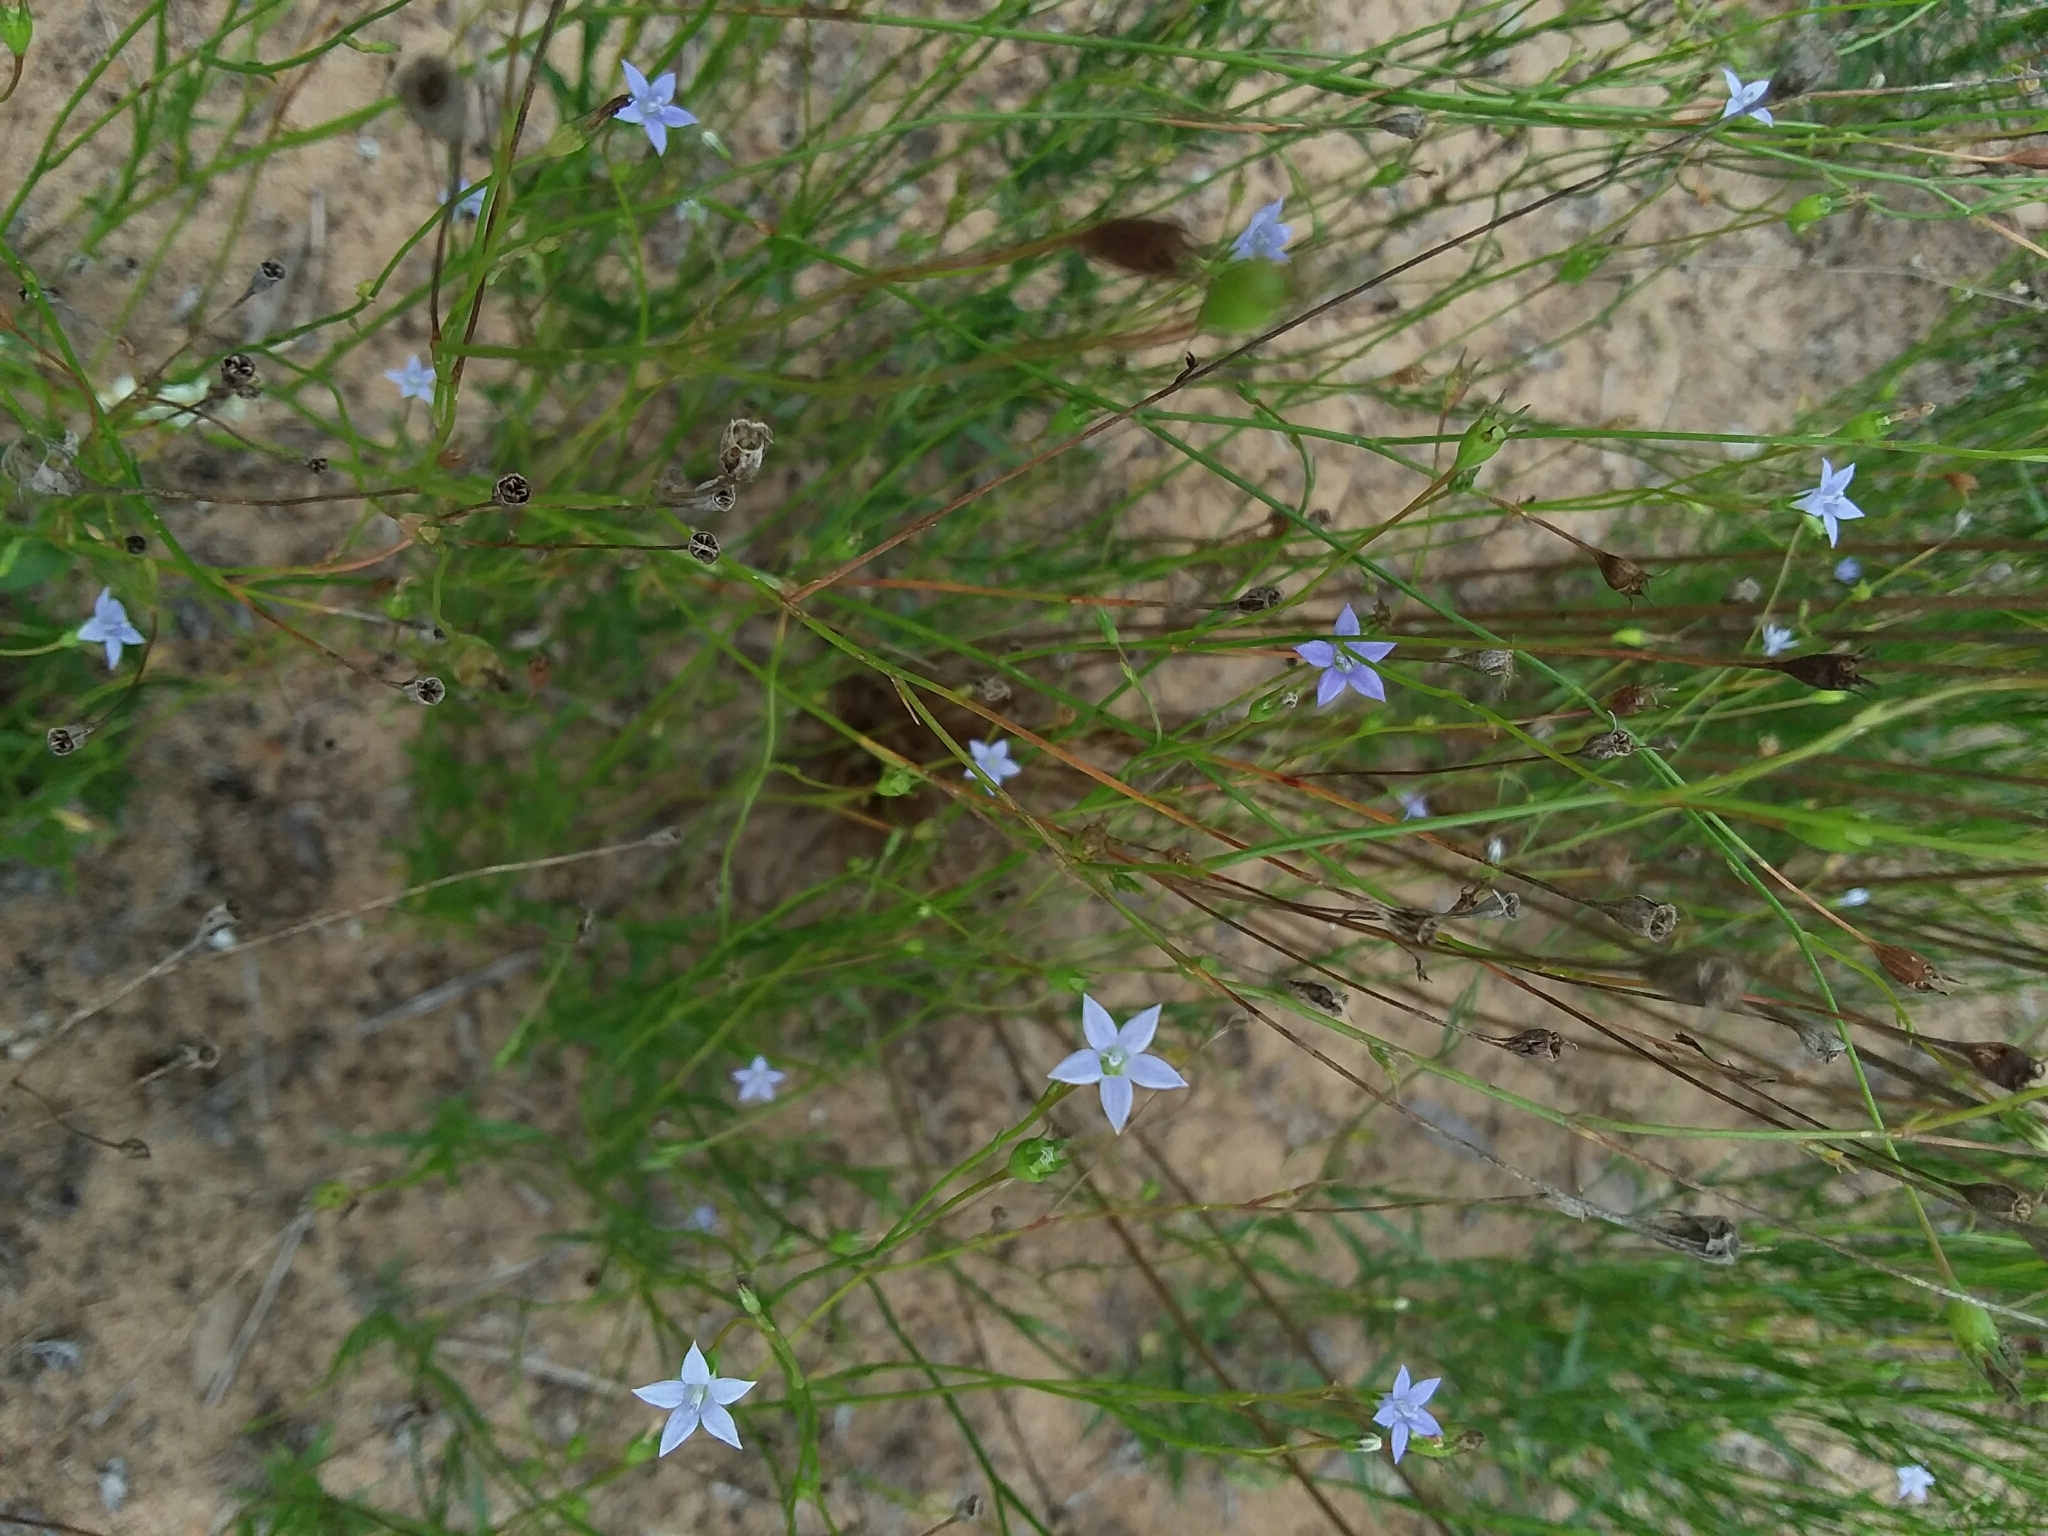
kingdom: Plantae
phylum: Tracheophyta
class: Magnoliopsida
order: Asterales
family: Campanulaceae
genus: Wahlenbergia
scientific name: Wahlenbergia marginata
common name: Southern rockbell
